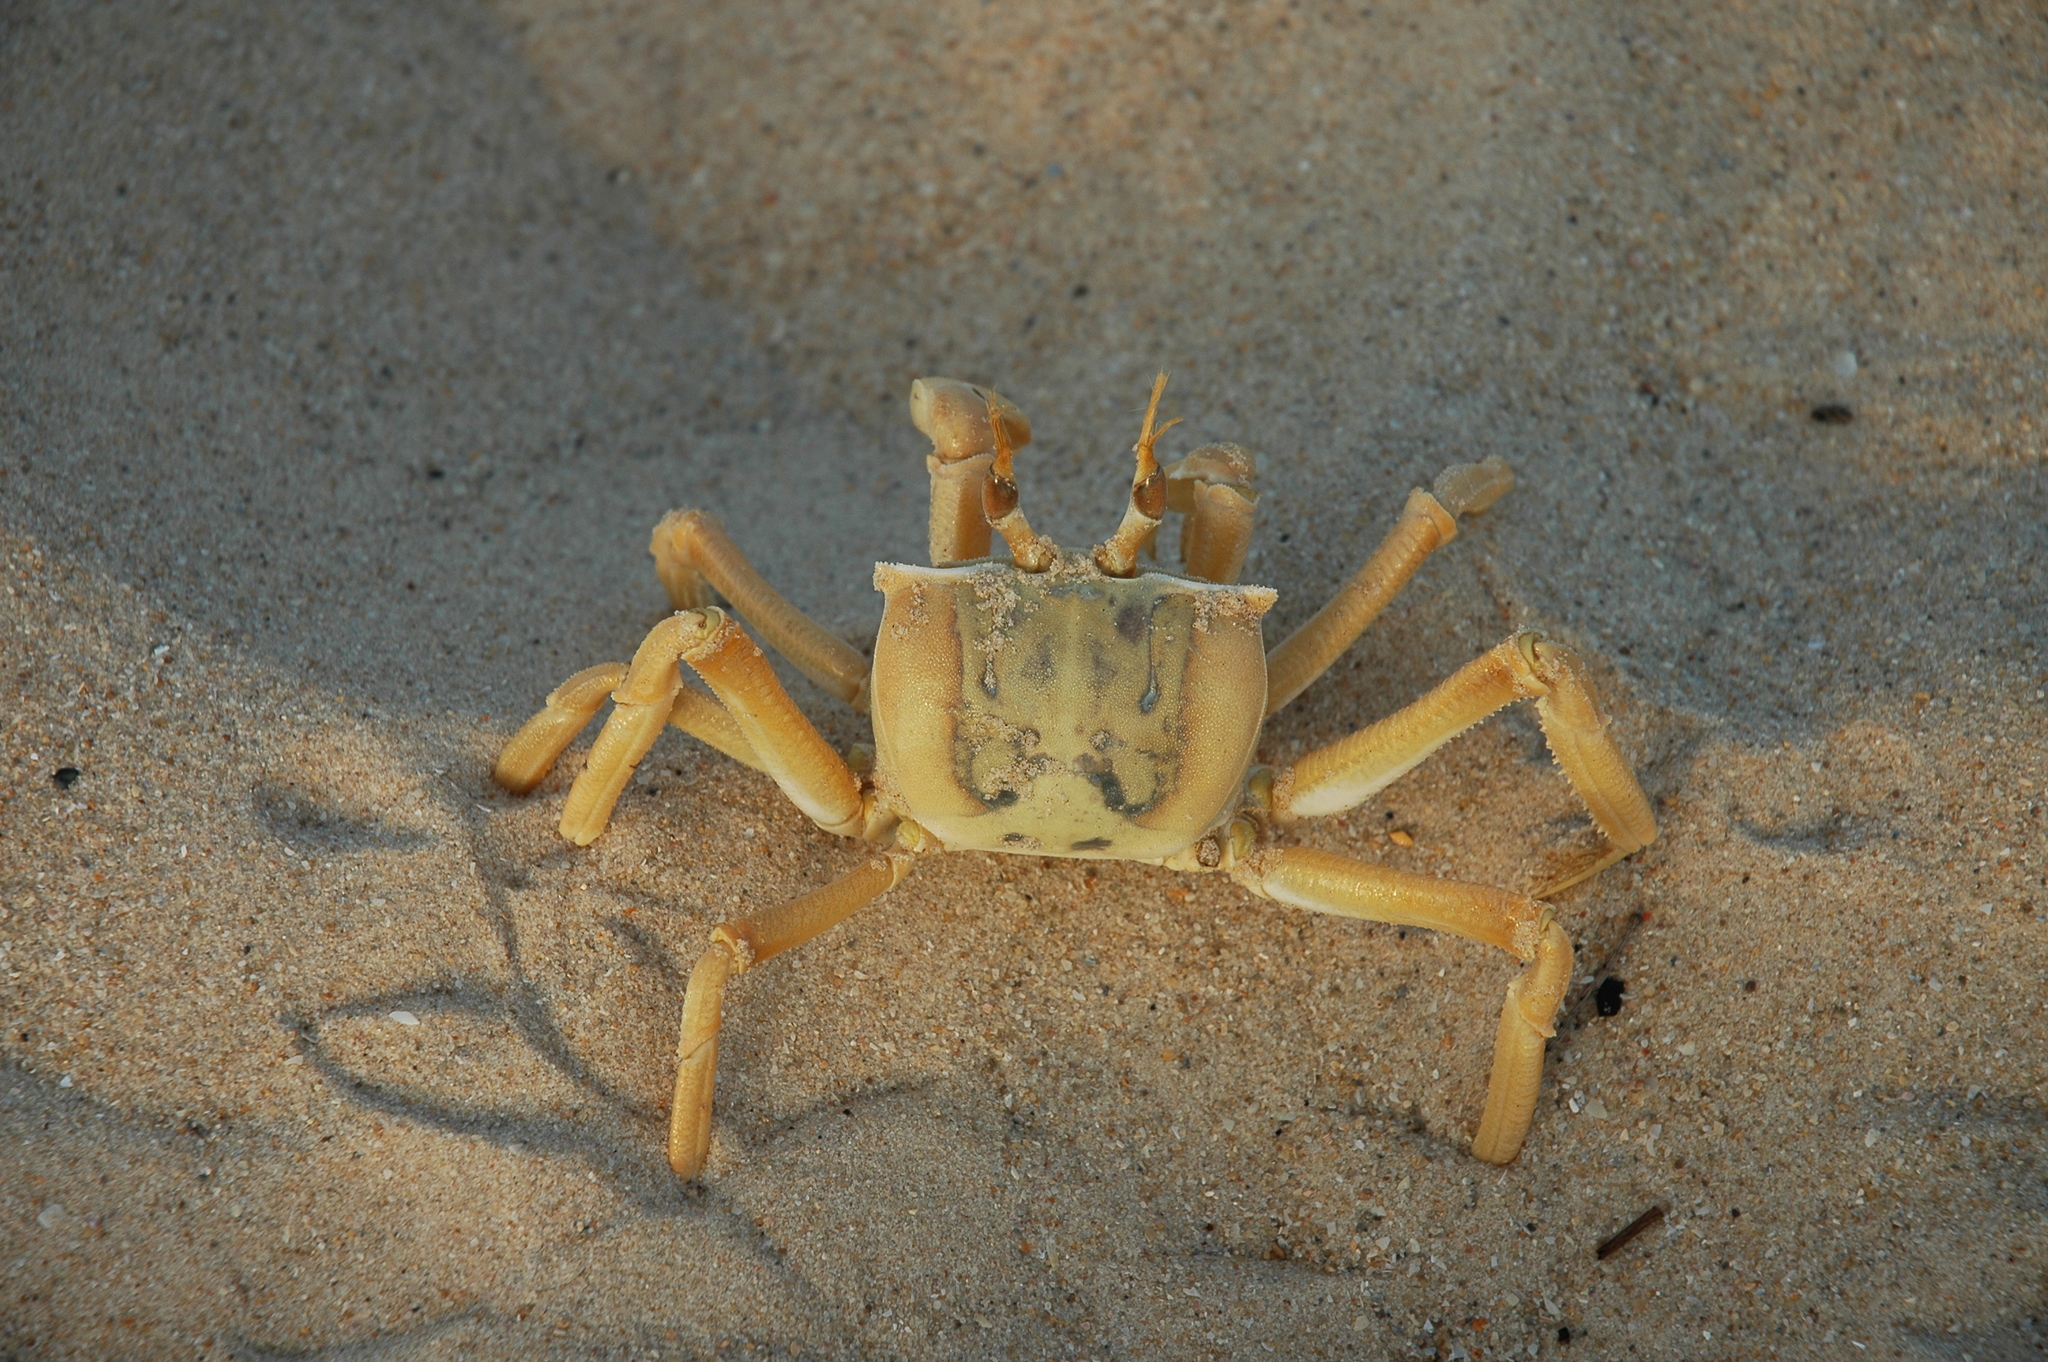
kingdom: Animalia
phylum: Arthropoda
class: Malacostraca
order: Decapoda
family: Ocypodidae
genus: Ocypode
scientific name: Ocypode cursor
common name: Tufted ghost crab
